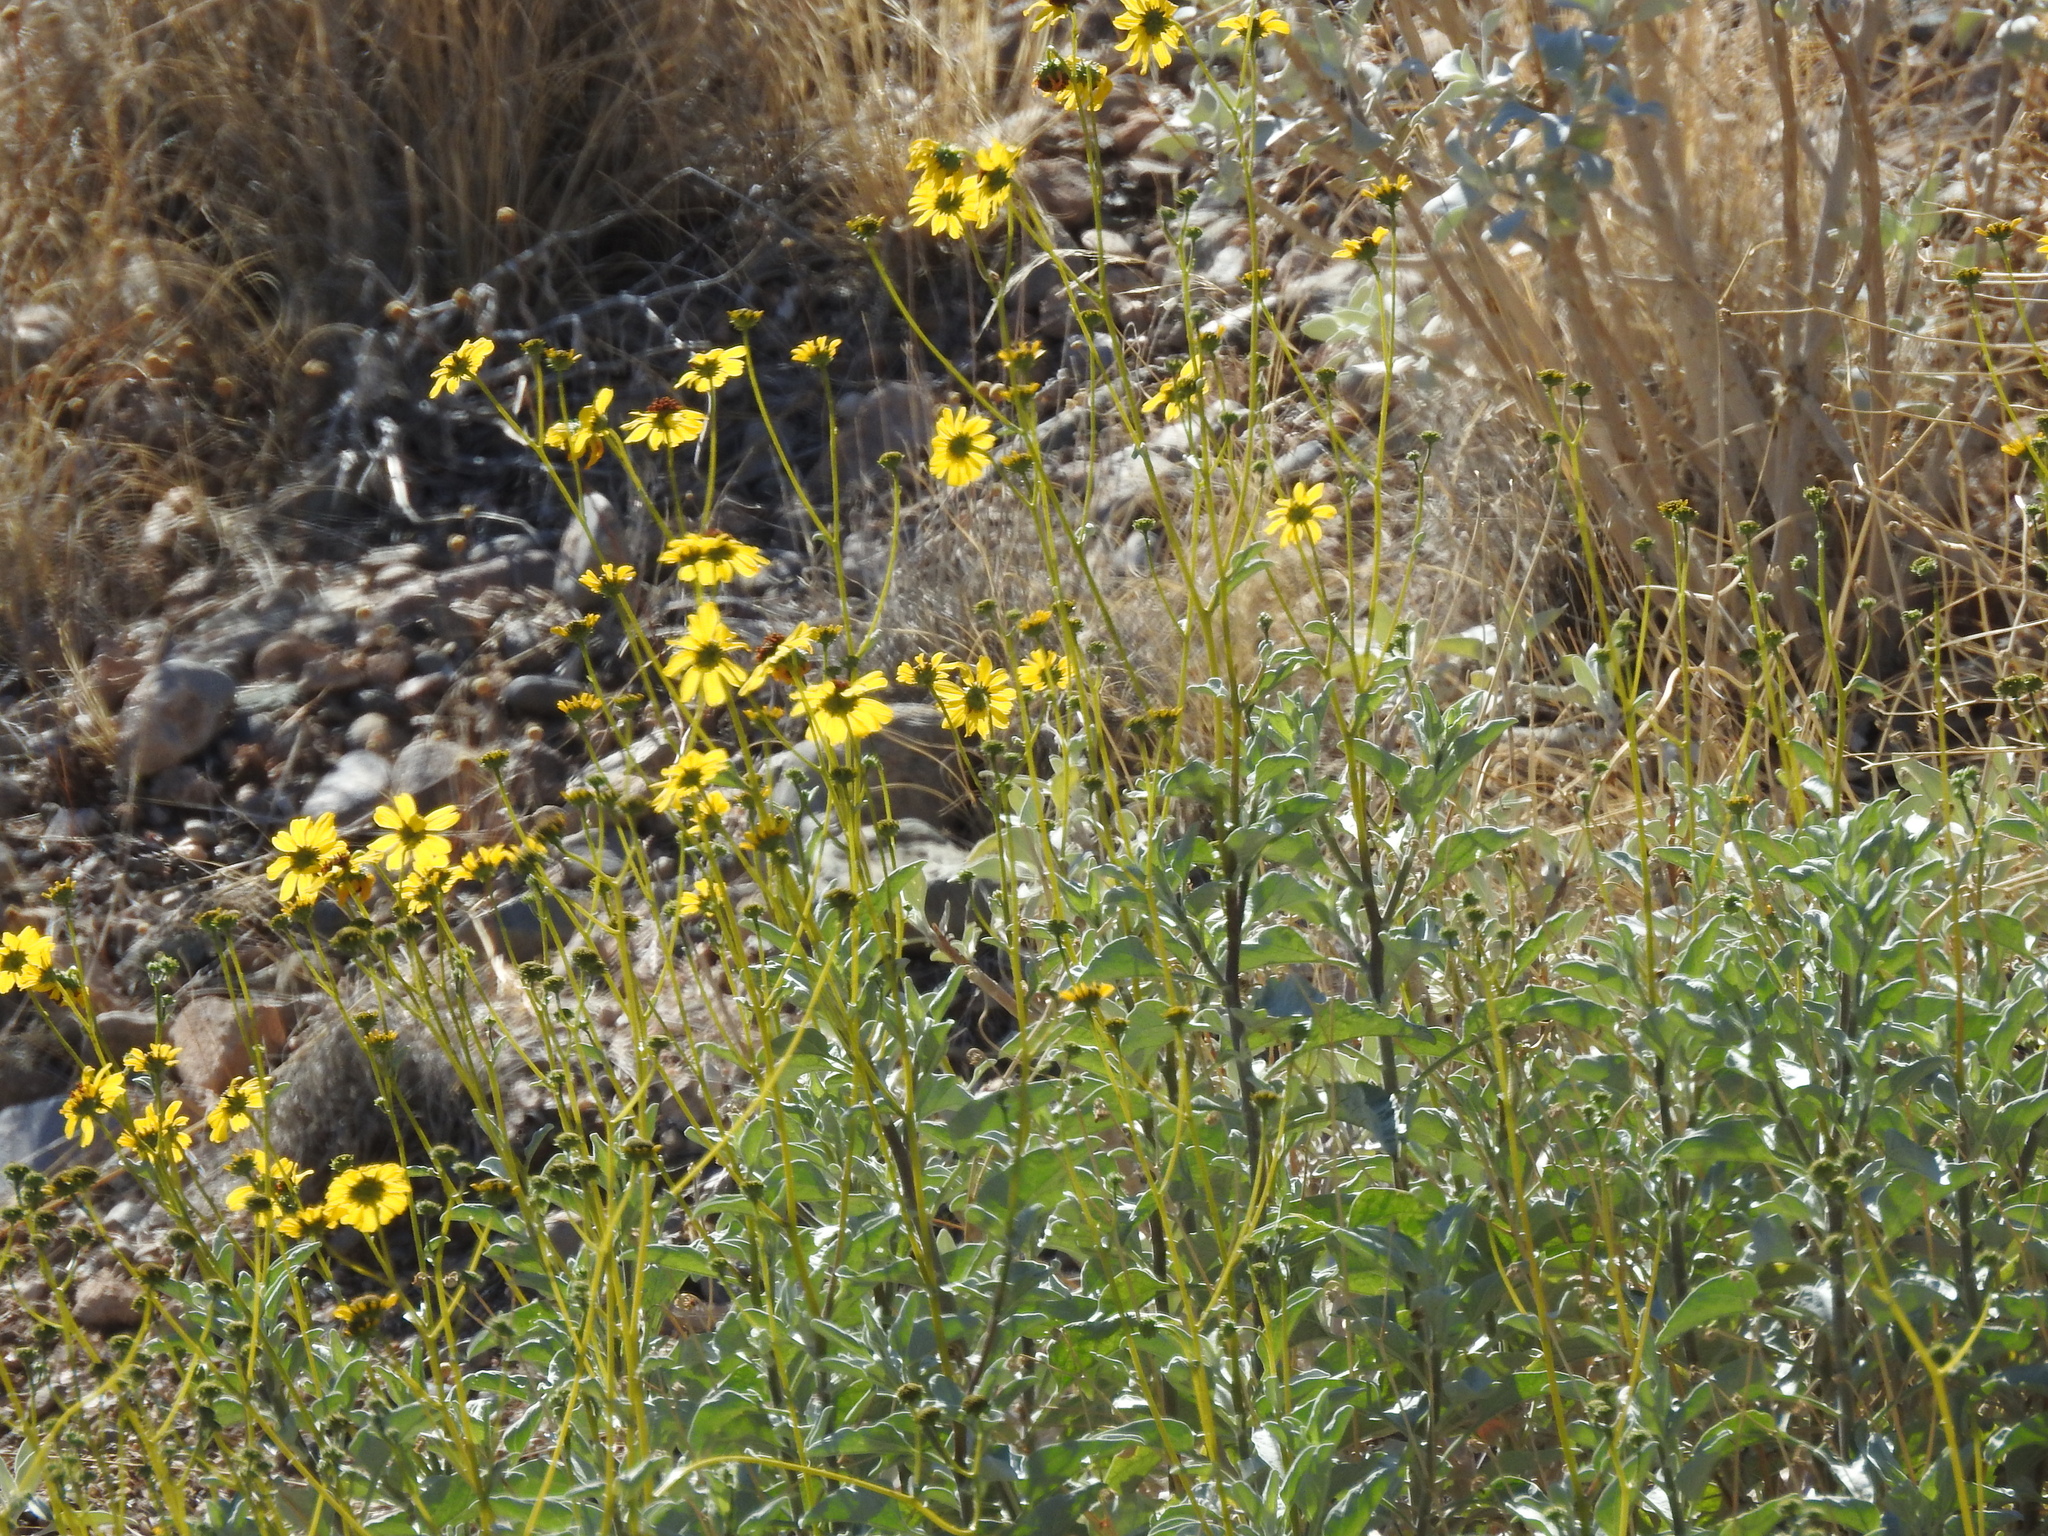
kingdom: Plantae
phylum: Tracheophyta
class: Magnoliopsida
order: Asterales
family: Asteraceae
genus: Encelia
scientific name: Encelia farinosa
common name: Brittlebush
